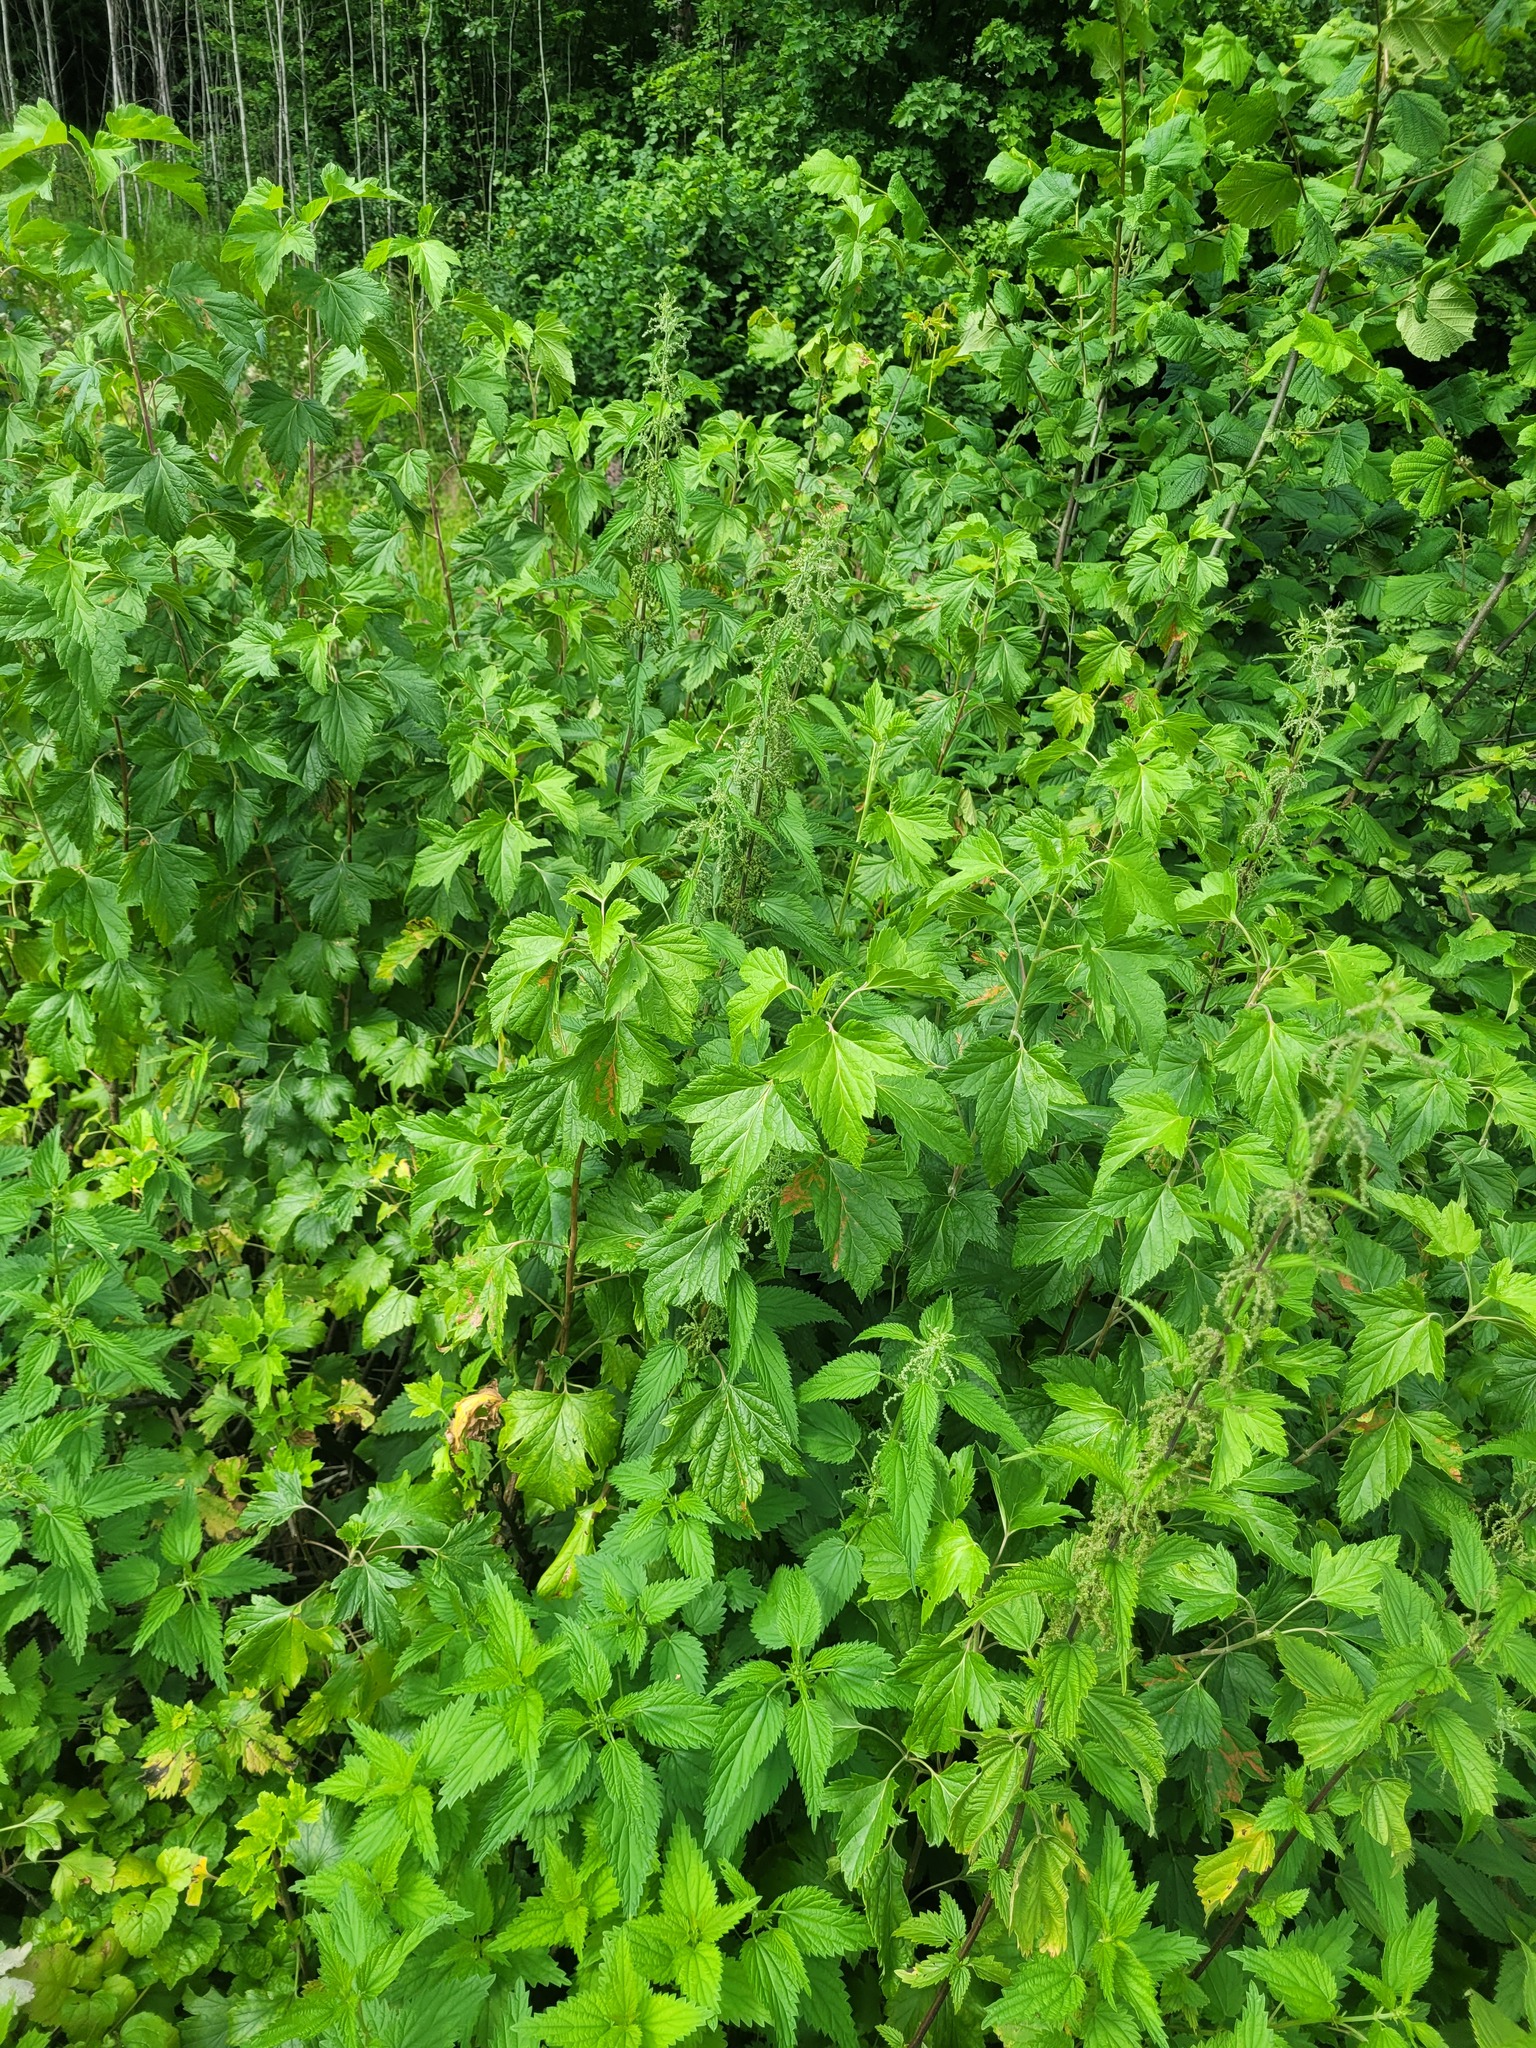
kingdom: Plantae
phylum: Tracheophyta
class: Magnoliopsida
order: Saxifragales
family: Grossulariaceae
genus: Ribes
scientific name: Ribes nigrum
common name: Black currant
